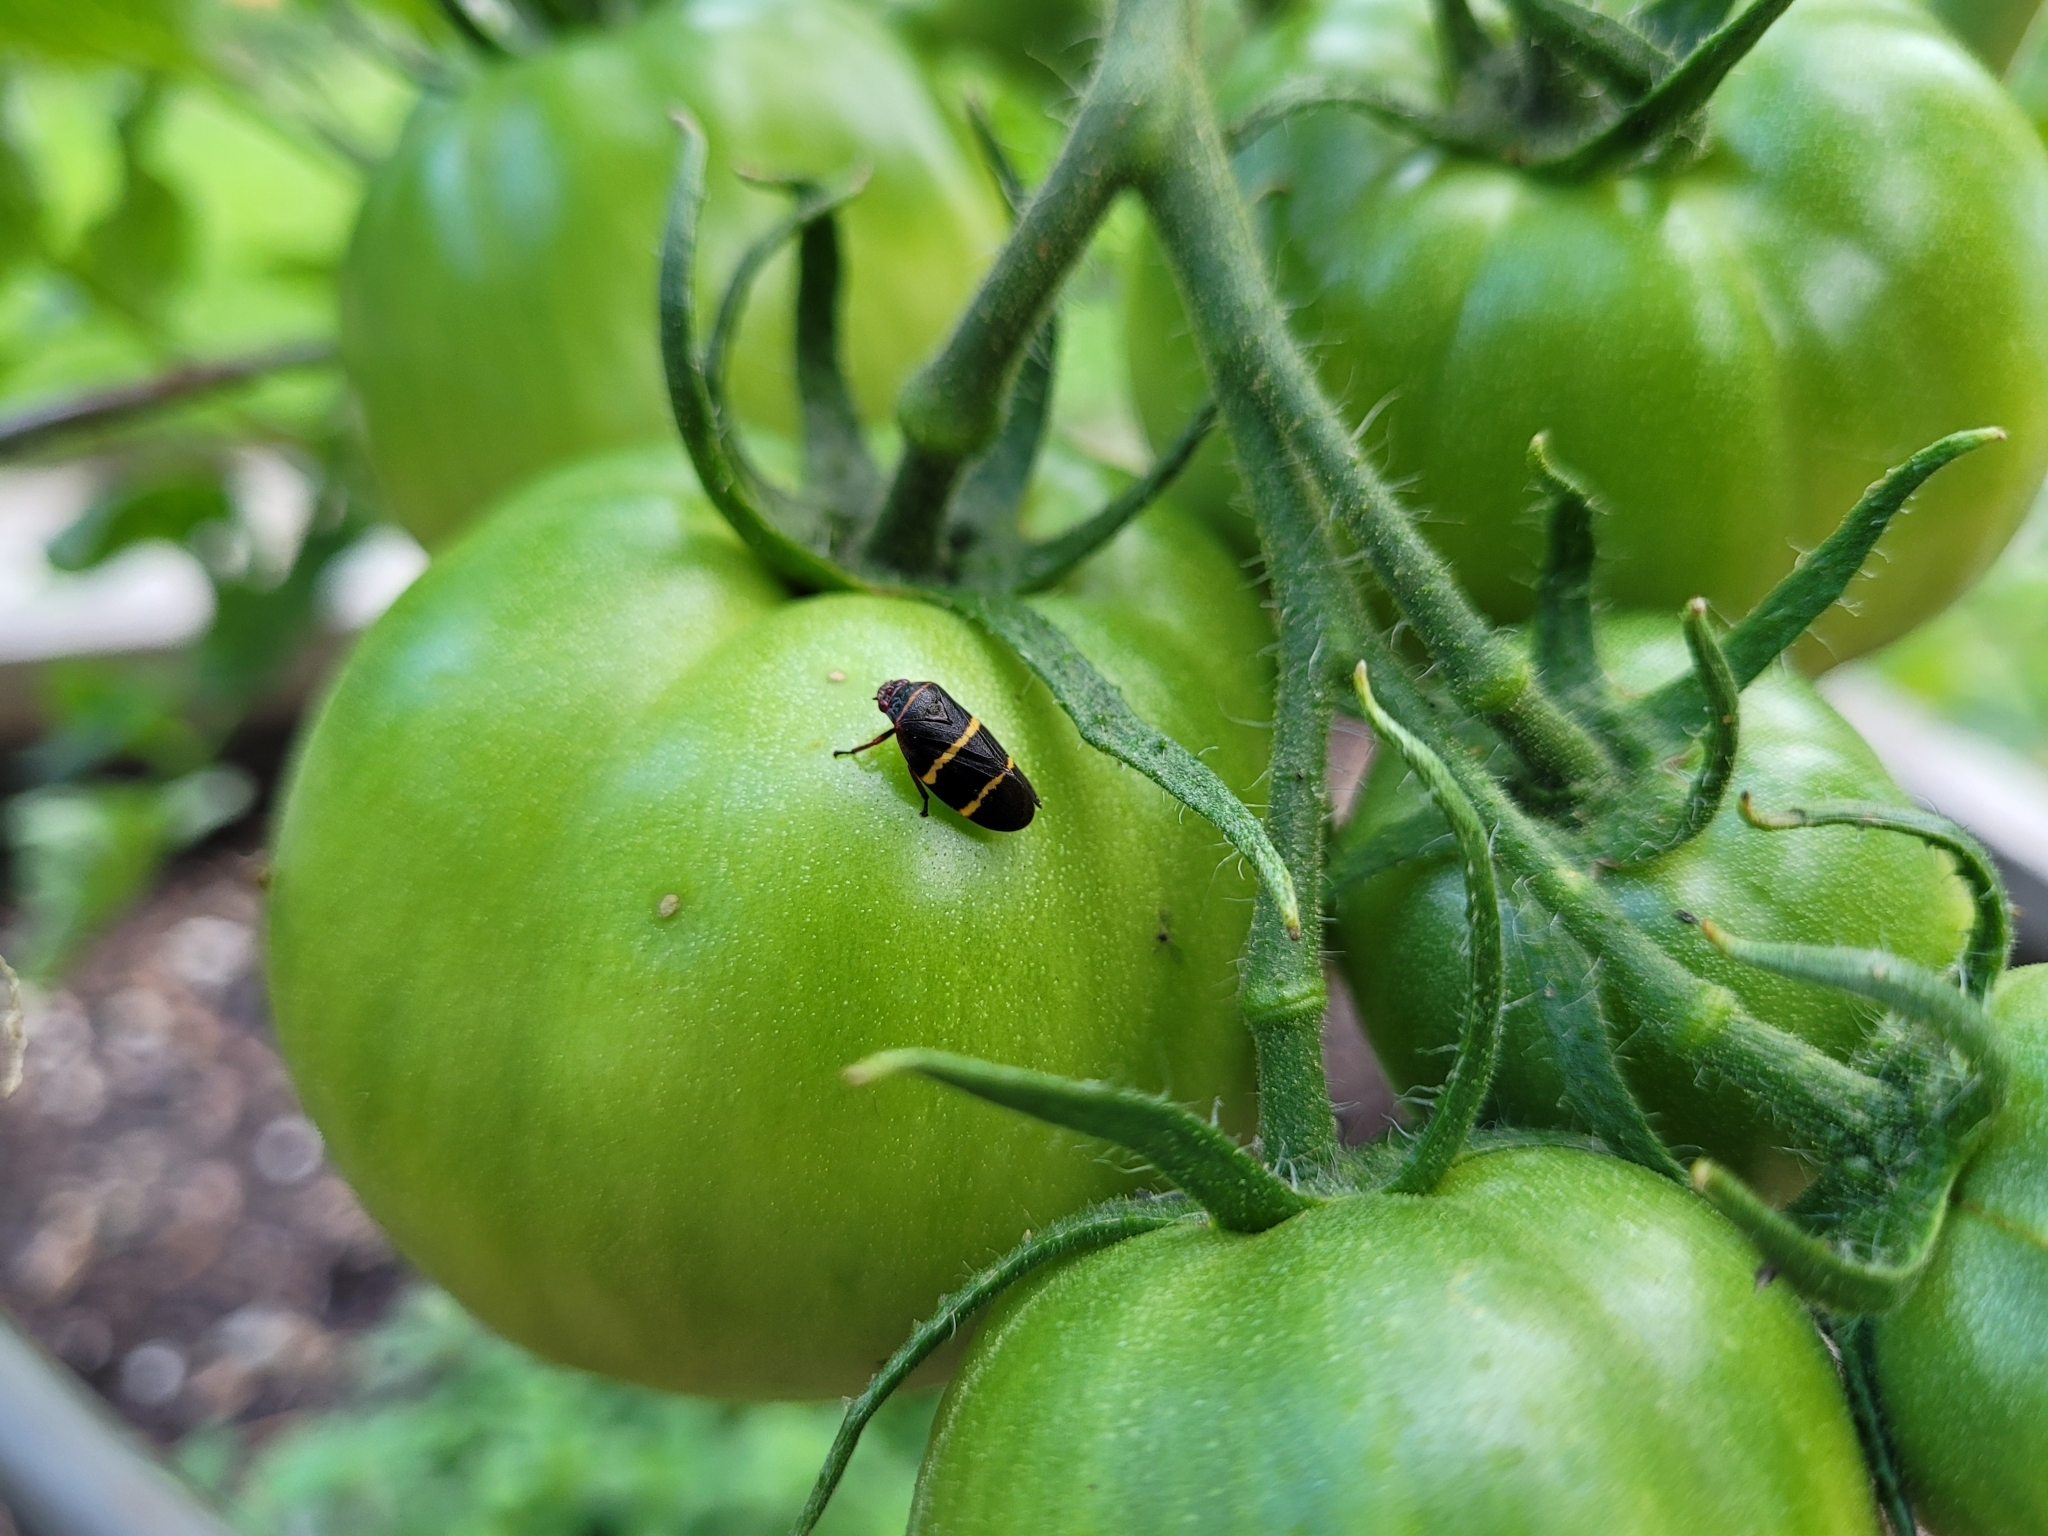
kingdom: Animalia
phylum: Arthropoda
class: Insecta
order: Hemiptera
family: Cercopidae
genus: Prosapia
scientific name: Prosapia bicincta
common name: Twolined spittlebug
